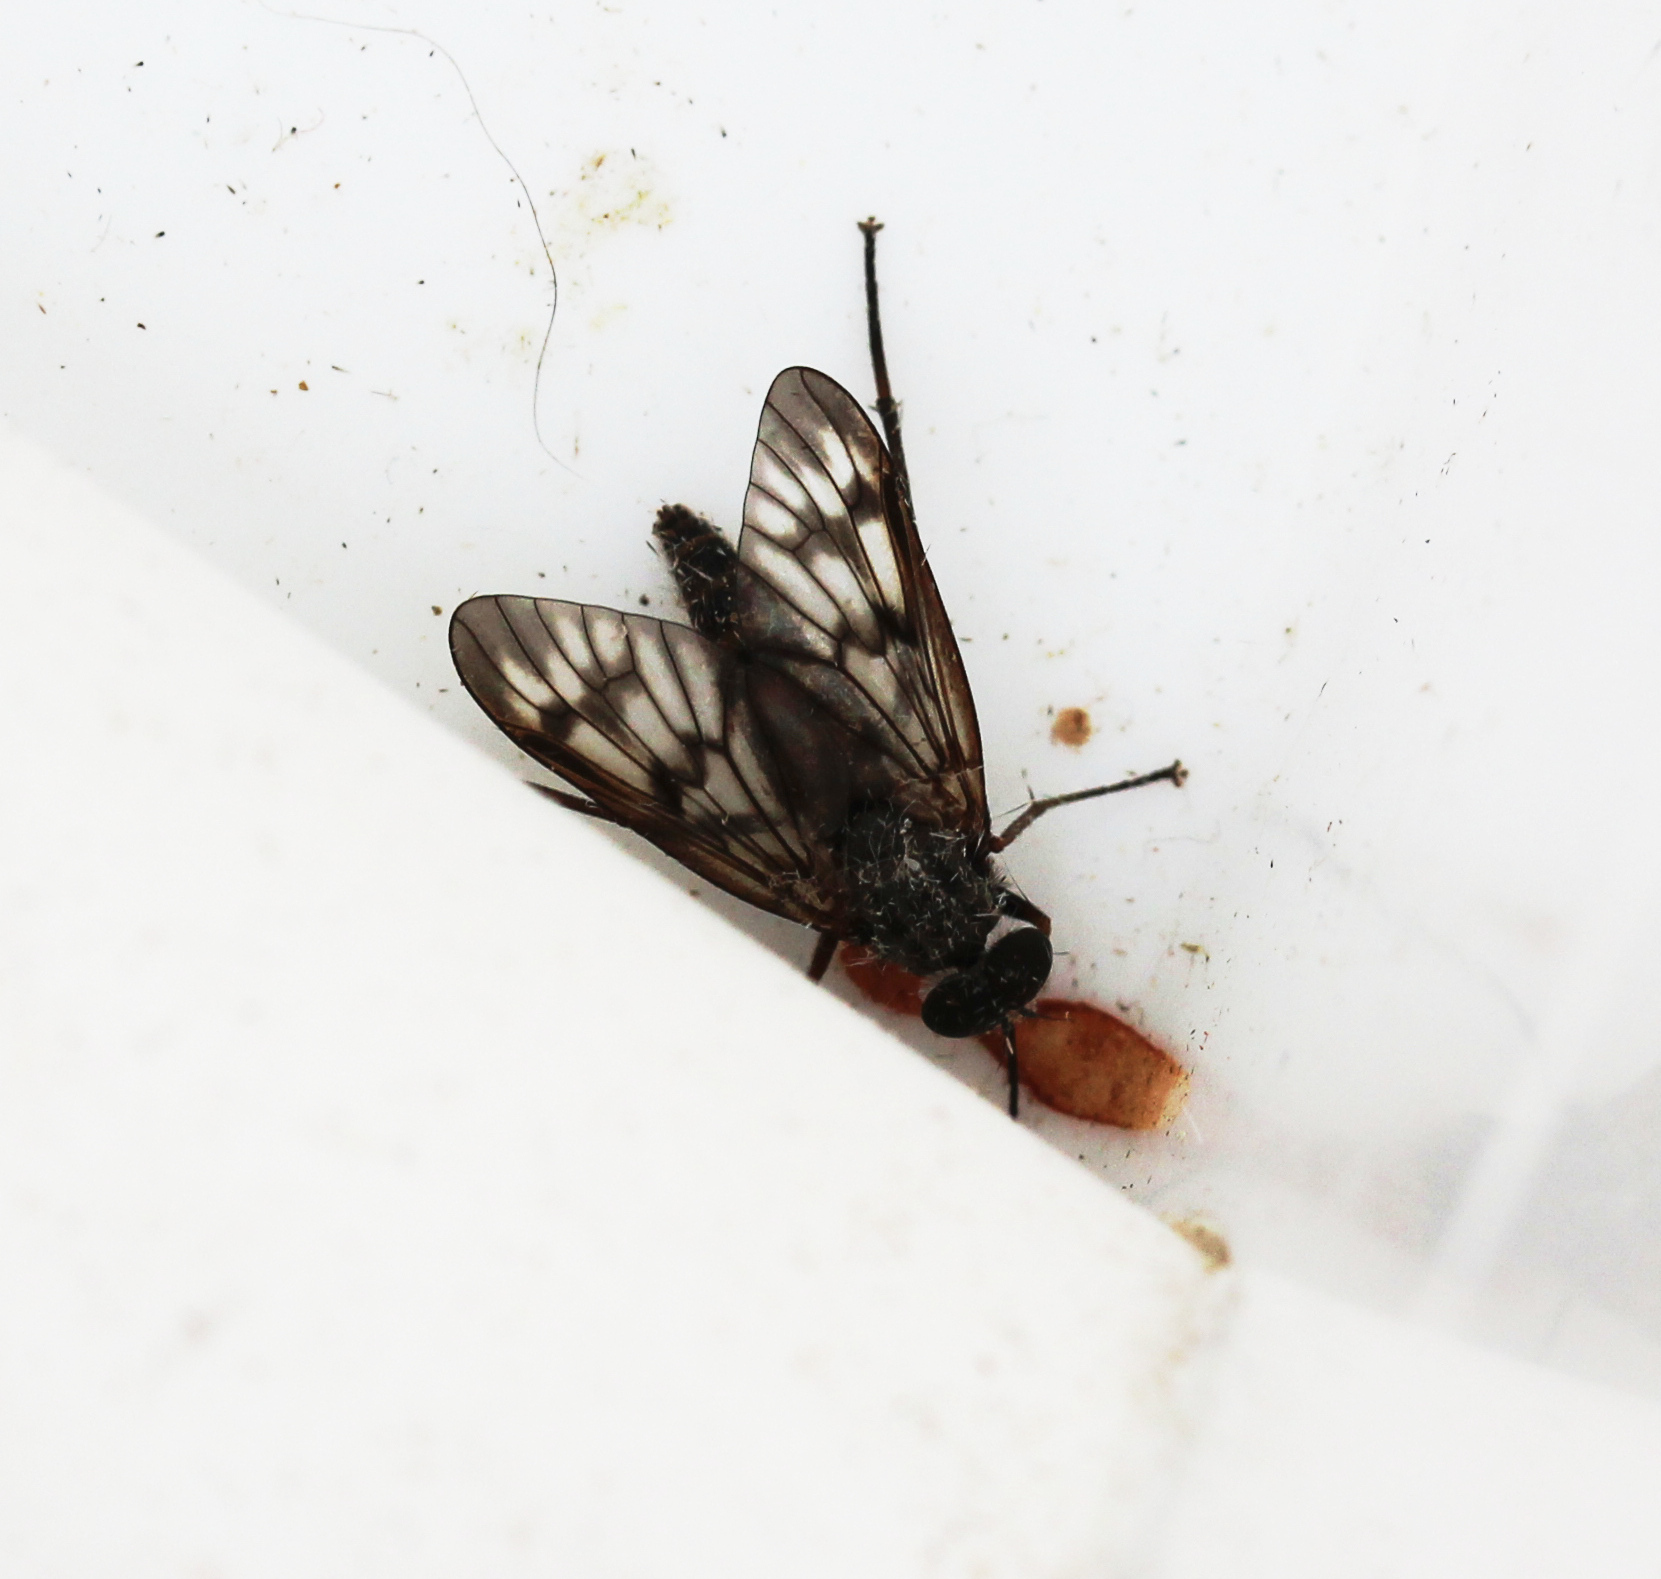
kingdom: Animalia
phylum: Arthropoda
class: Insecta
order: Diptera
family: Rhagionidae
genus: Rhagio
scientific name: Rhagio mystaceus
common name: Common snipe fly
